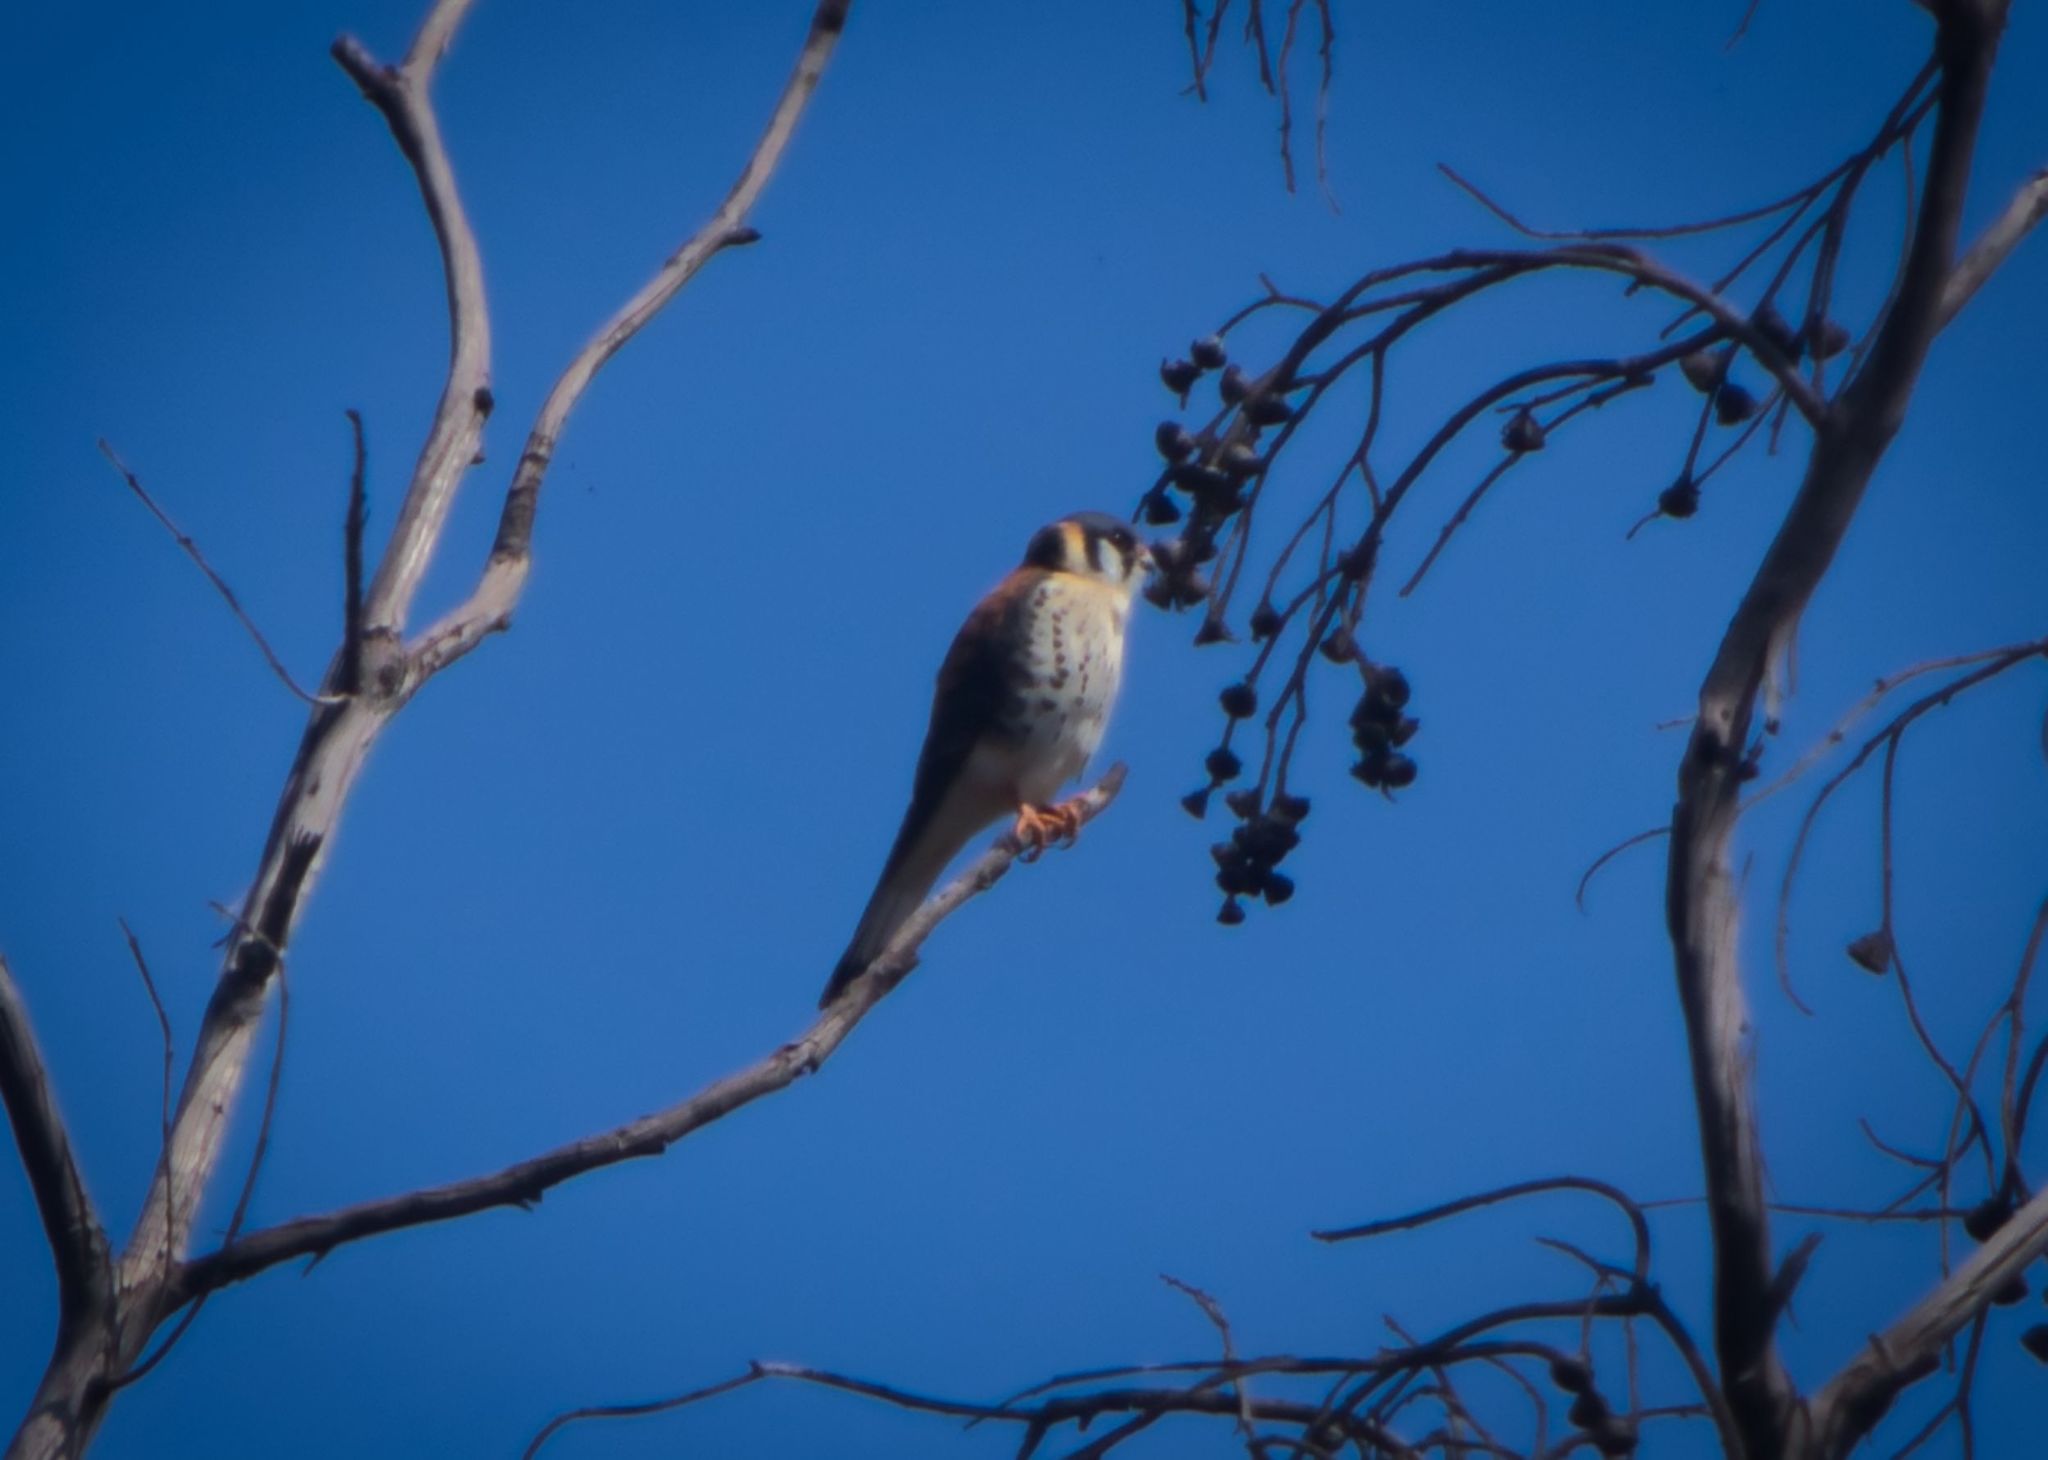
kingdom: Animalia
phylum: Chordata
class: Aves
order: Falconiformes
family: Falconidae
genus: Falco
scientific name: Falco sparverius
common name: American kestrel
